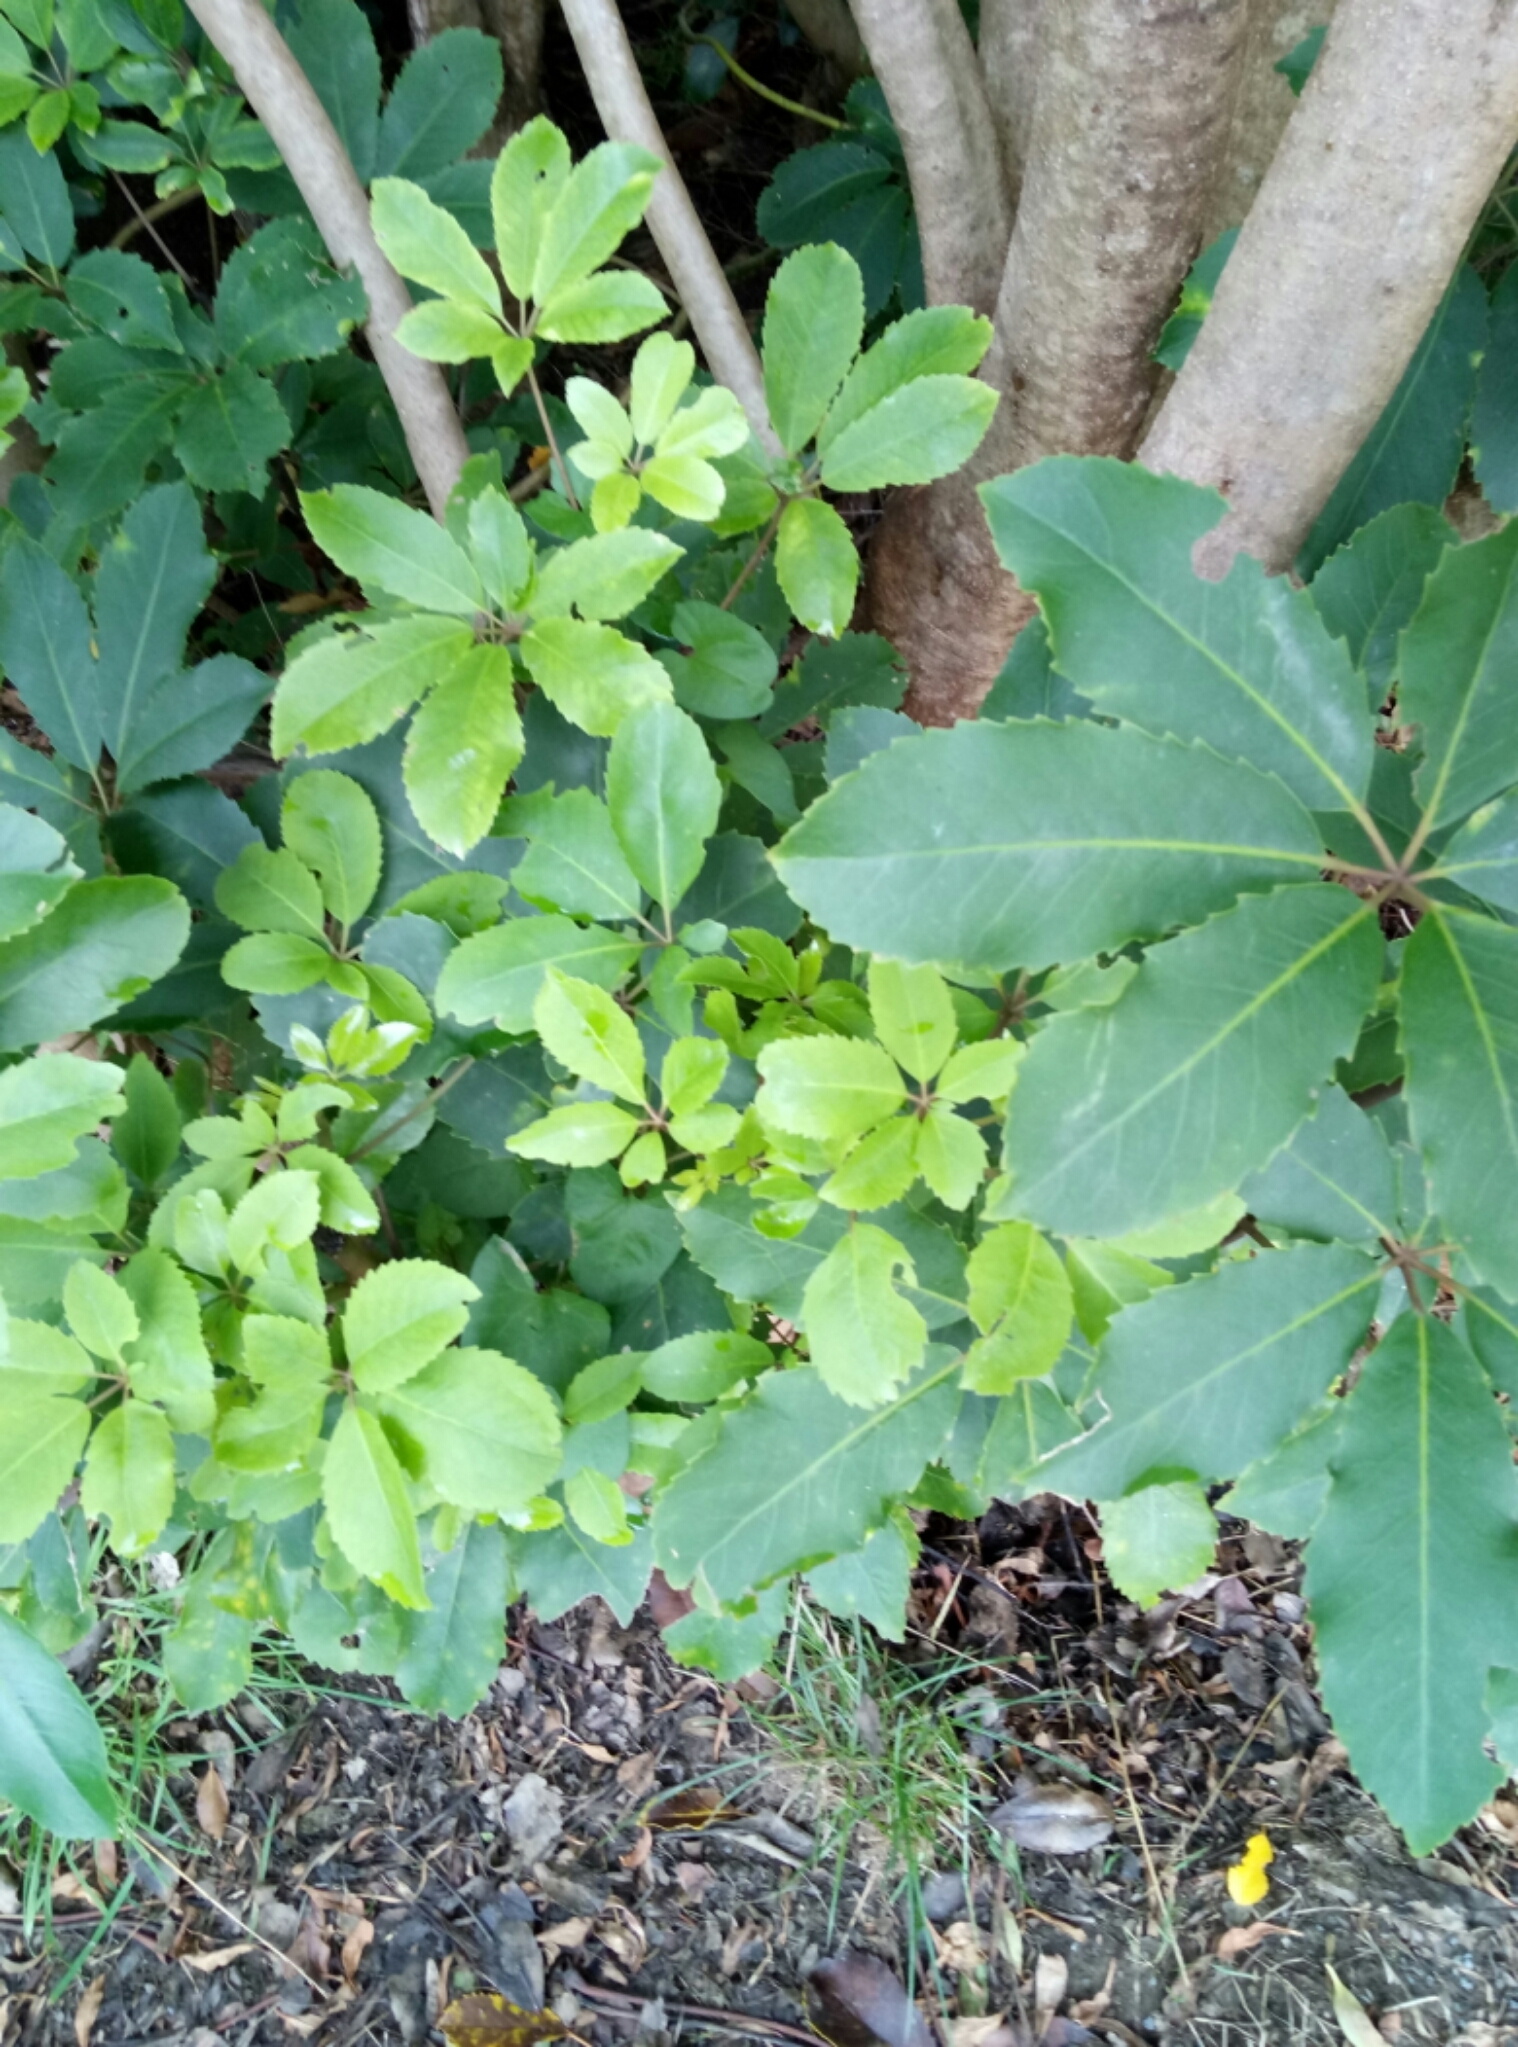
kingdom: Plantae
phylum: Tracheophyta
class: Magnoliopsida
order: Apiales
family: Araliaceae
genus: Neopanax
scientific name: Neopanax arboreus
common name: Five-fingers
